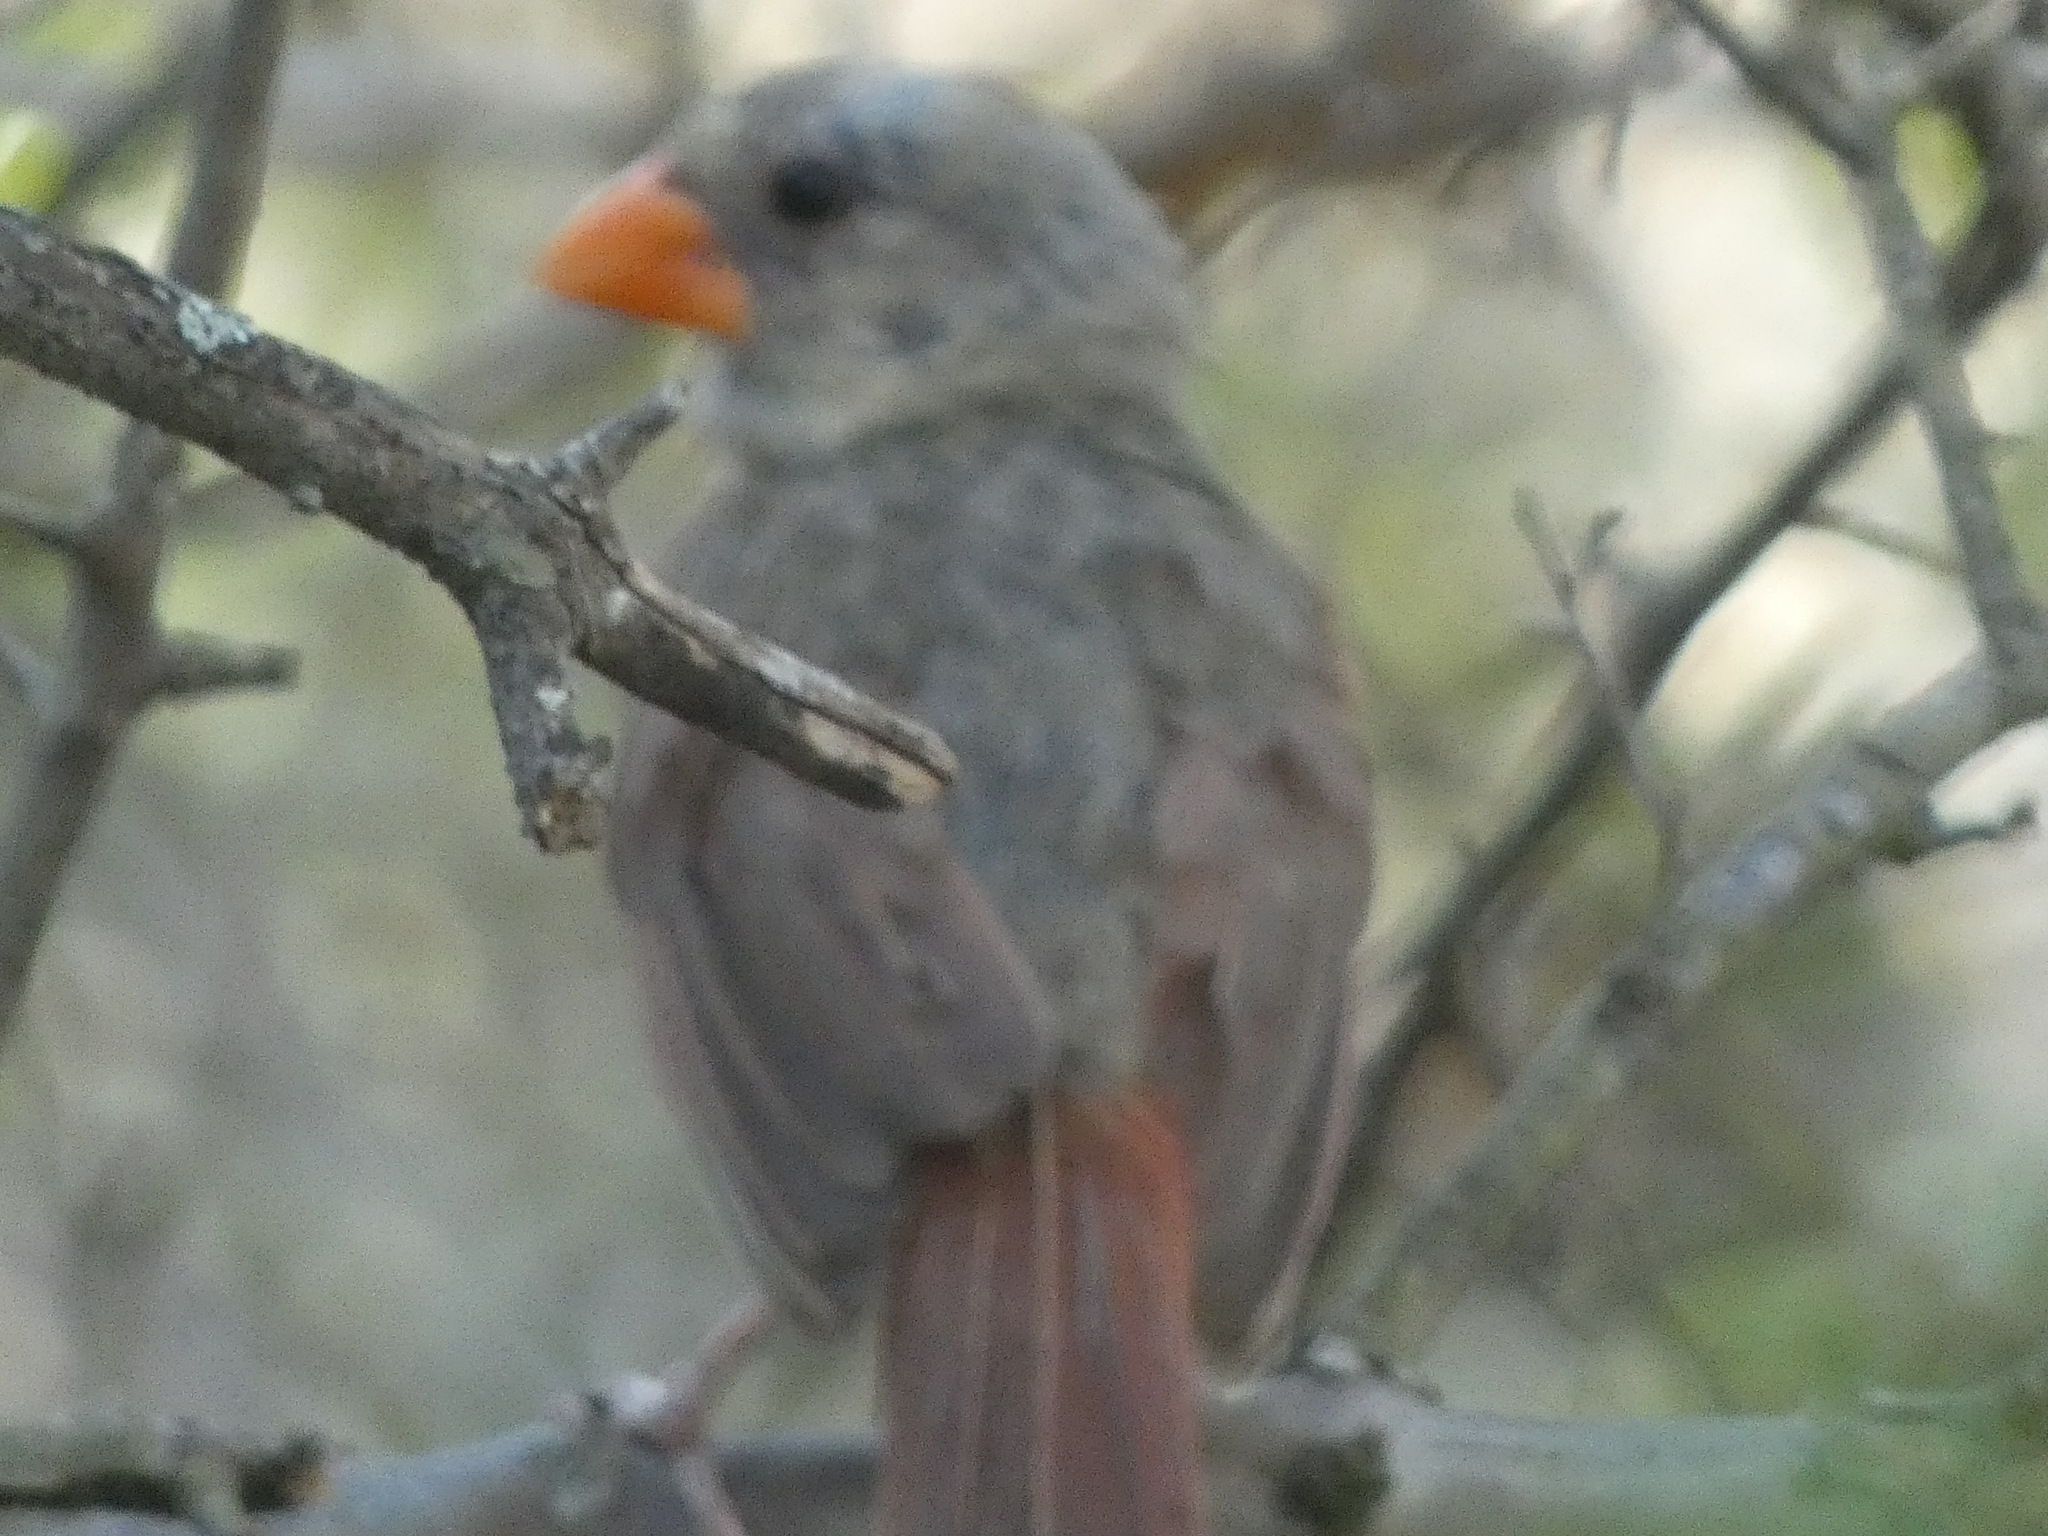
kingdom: Animalia
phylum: Chordata
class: Aves
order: Passeriformes
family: Cardinalidae
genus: Cardinalis
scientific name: Cardinalis cardinalis
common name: Northern cardinal
